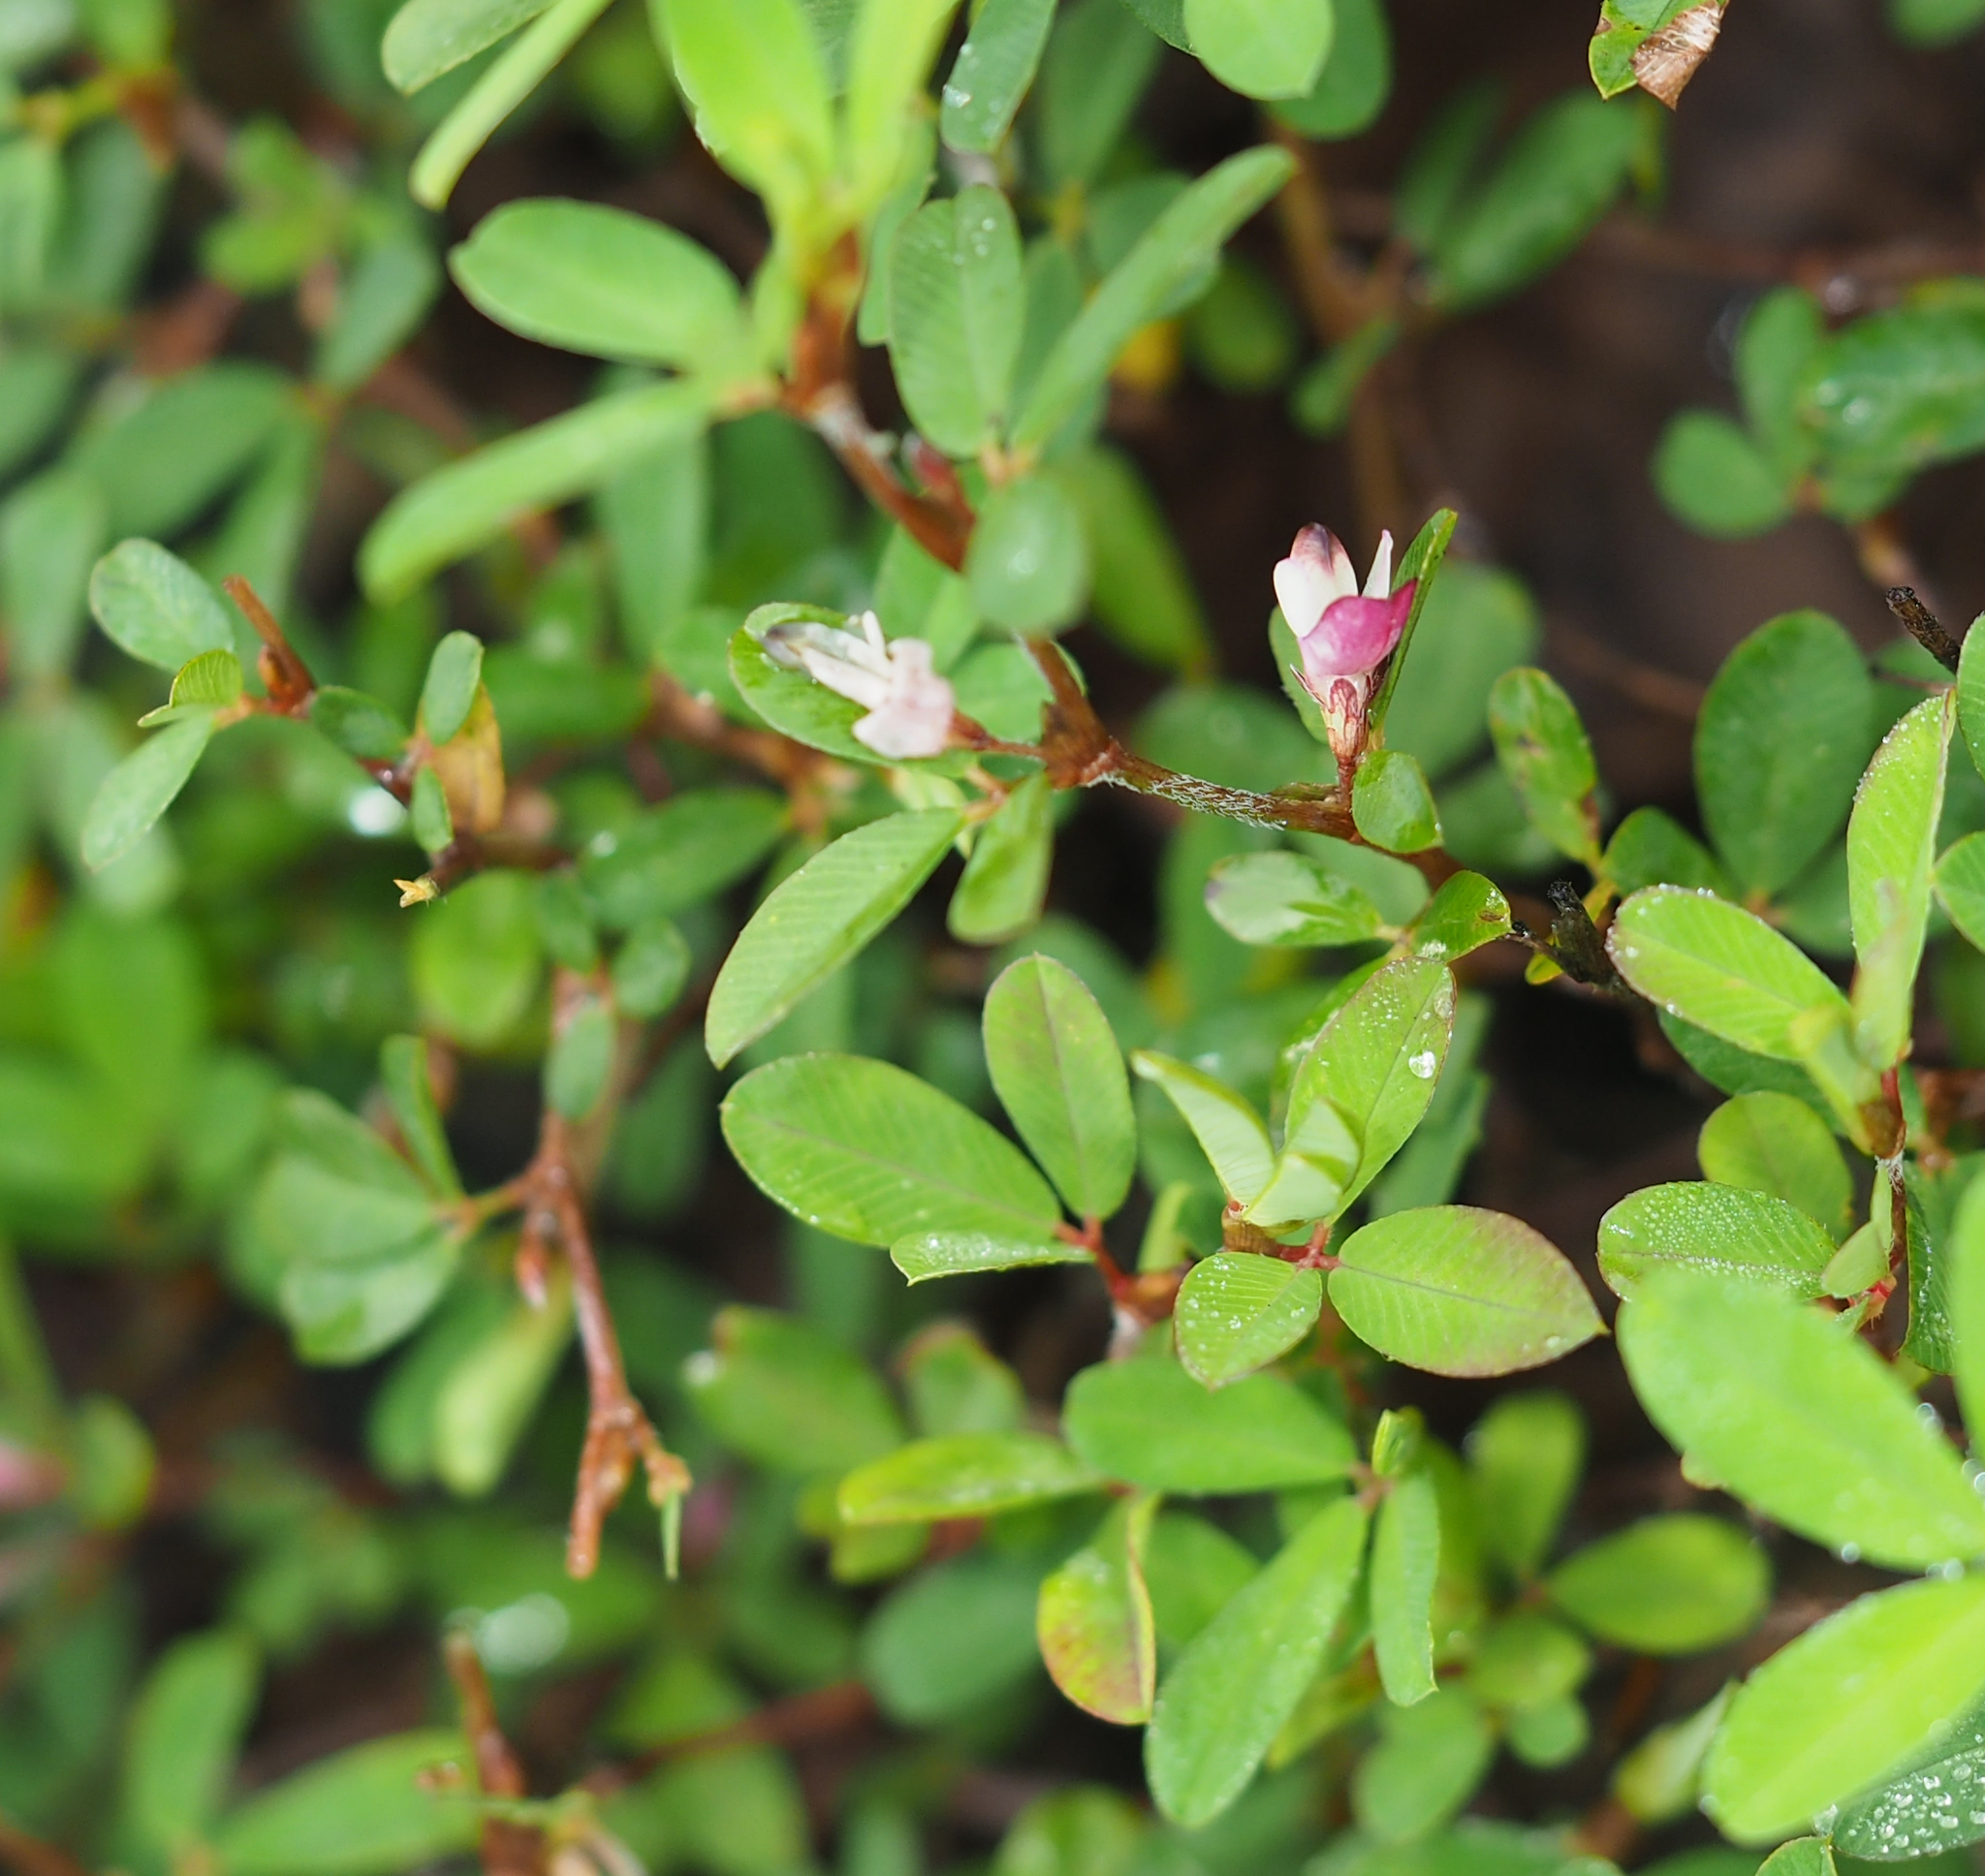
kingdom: Plantae
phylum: Tracheophyta
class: Magnoliopsida
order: Fabales
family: Fabaceae
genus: Kummerowia
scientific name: Kummerowia striata
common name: Japanese clover
